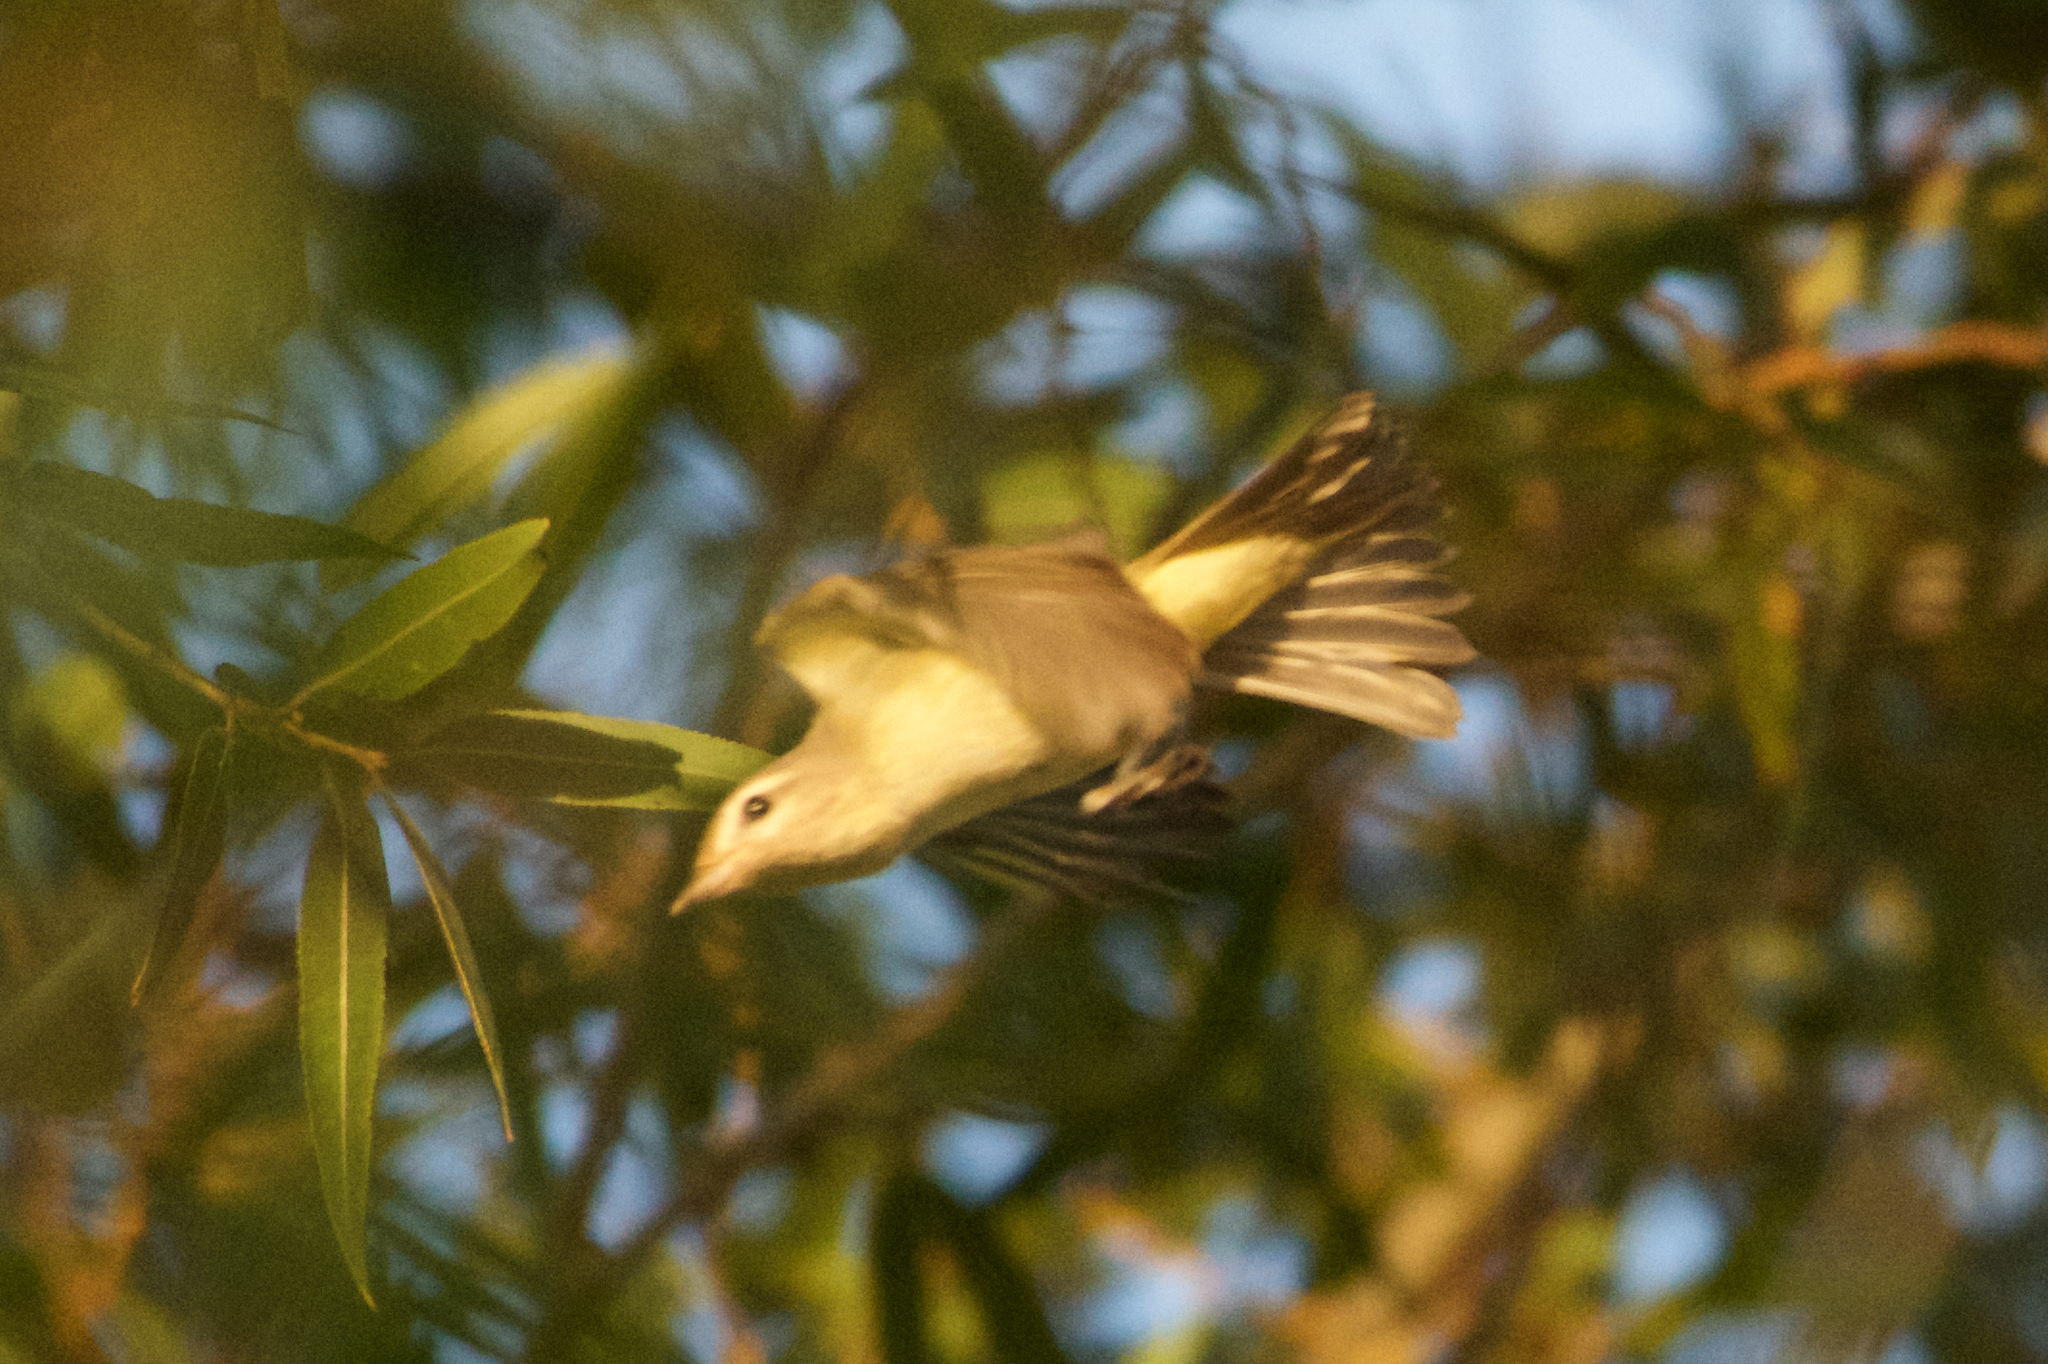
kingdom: Animalia
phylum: Chordata
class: Aves
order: Passeriformes
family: Vireonidae
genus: Vireo
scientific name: Vireo gilvus
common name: Warbling vireo
